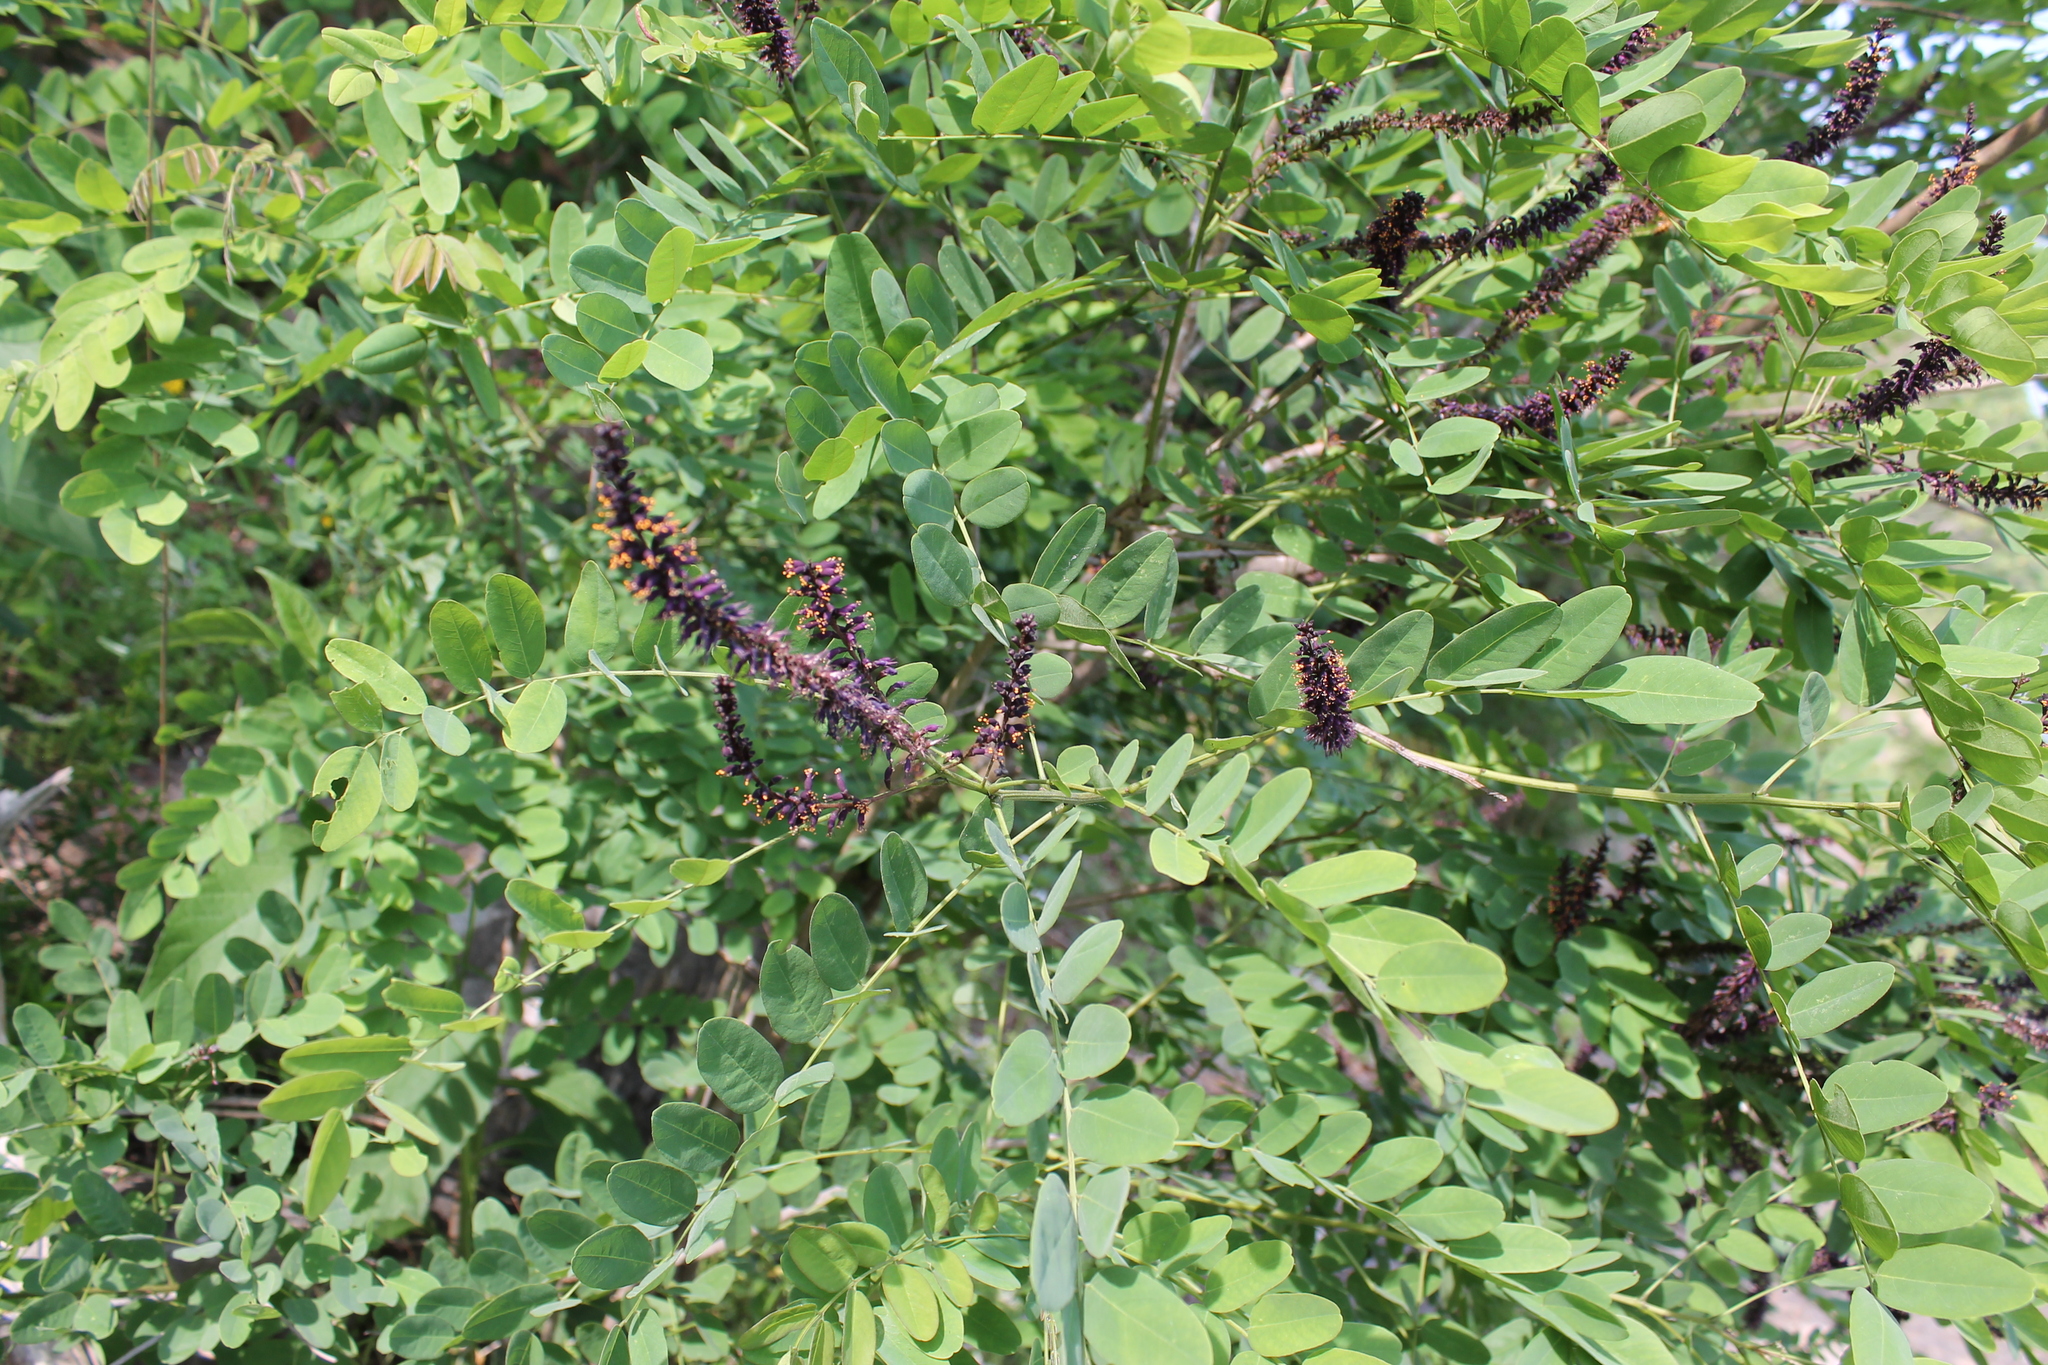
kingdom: Plantae
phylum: Tracheophyta
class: Magnoliopsida
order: Fabales
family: Fabaceae
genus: Amorpha
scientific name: Amorpha fruticosa
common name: False indigo
